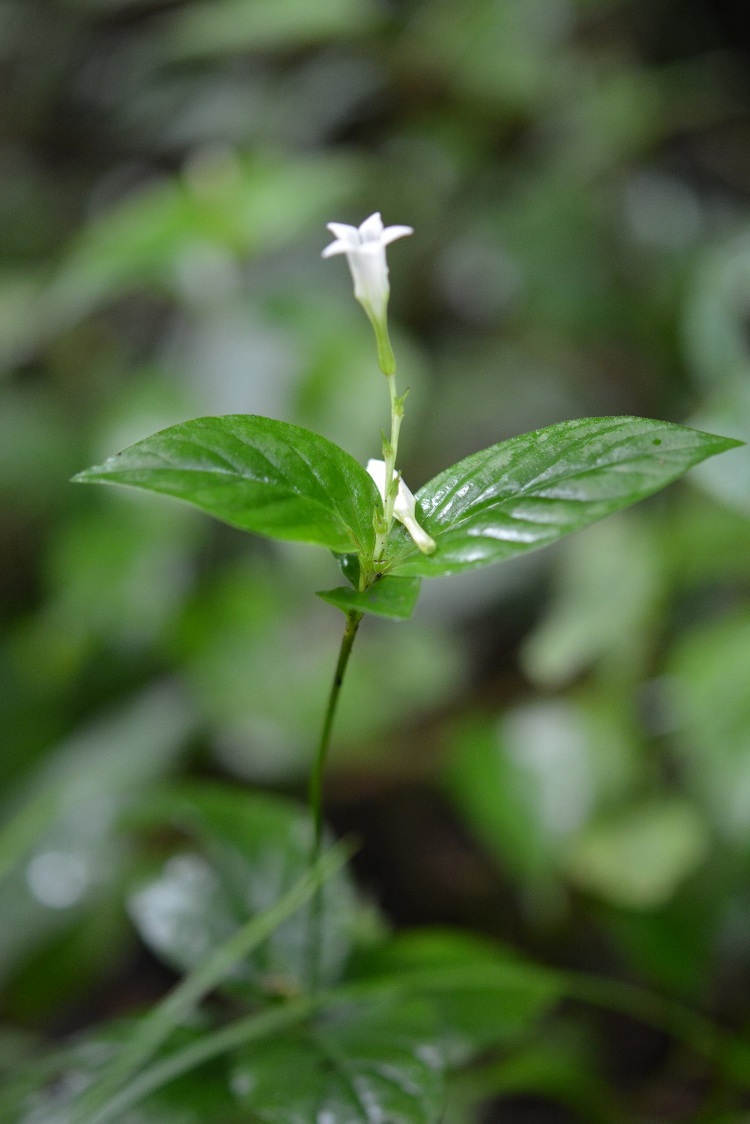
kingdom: Plantae
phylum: Tracheophyta
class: Magnoliopsida
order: Gentianales
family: Loganiaceae
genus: Spigelia
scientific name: Spigelia humboldtiana
